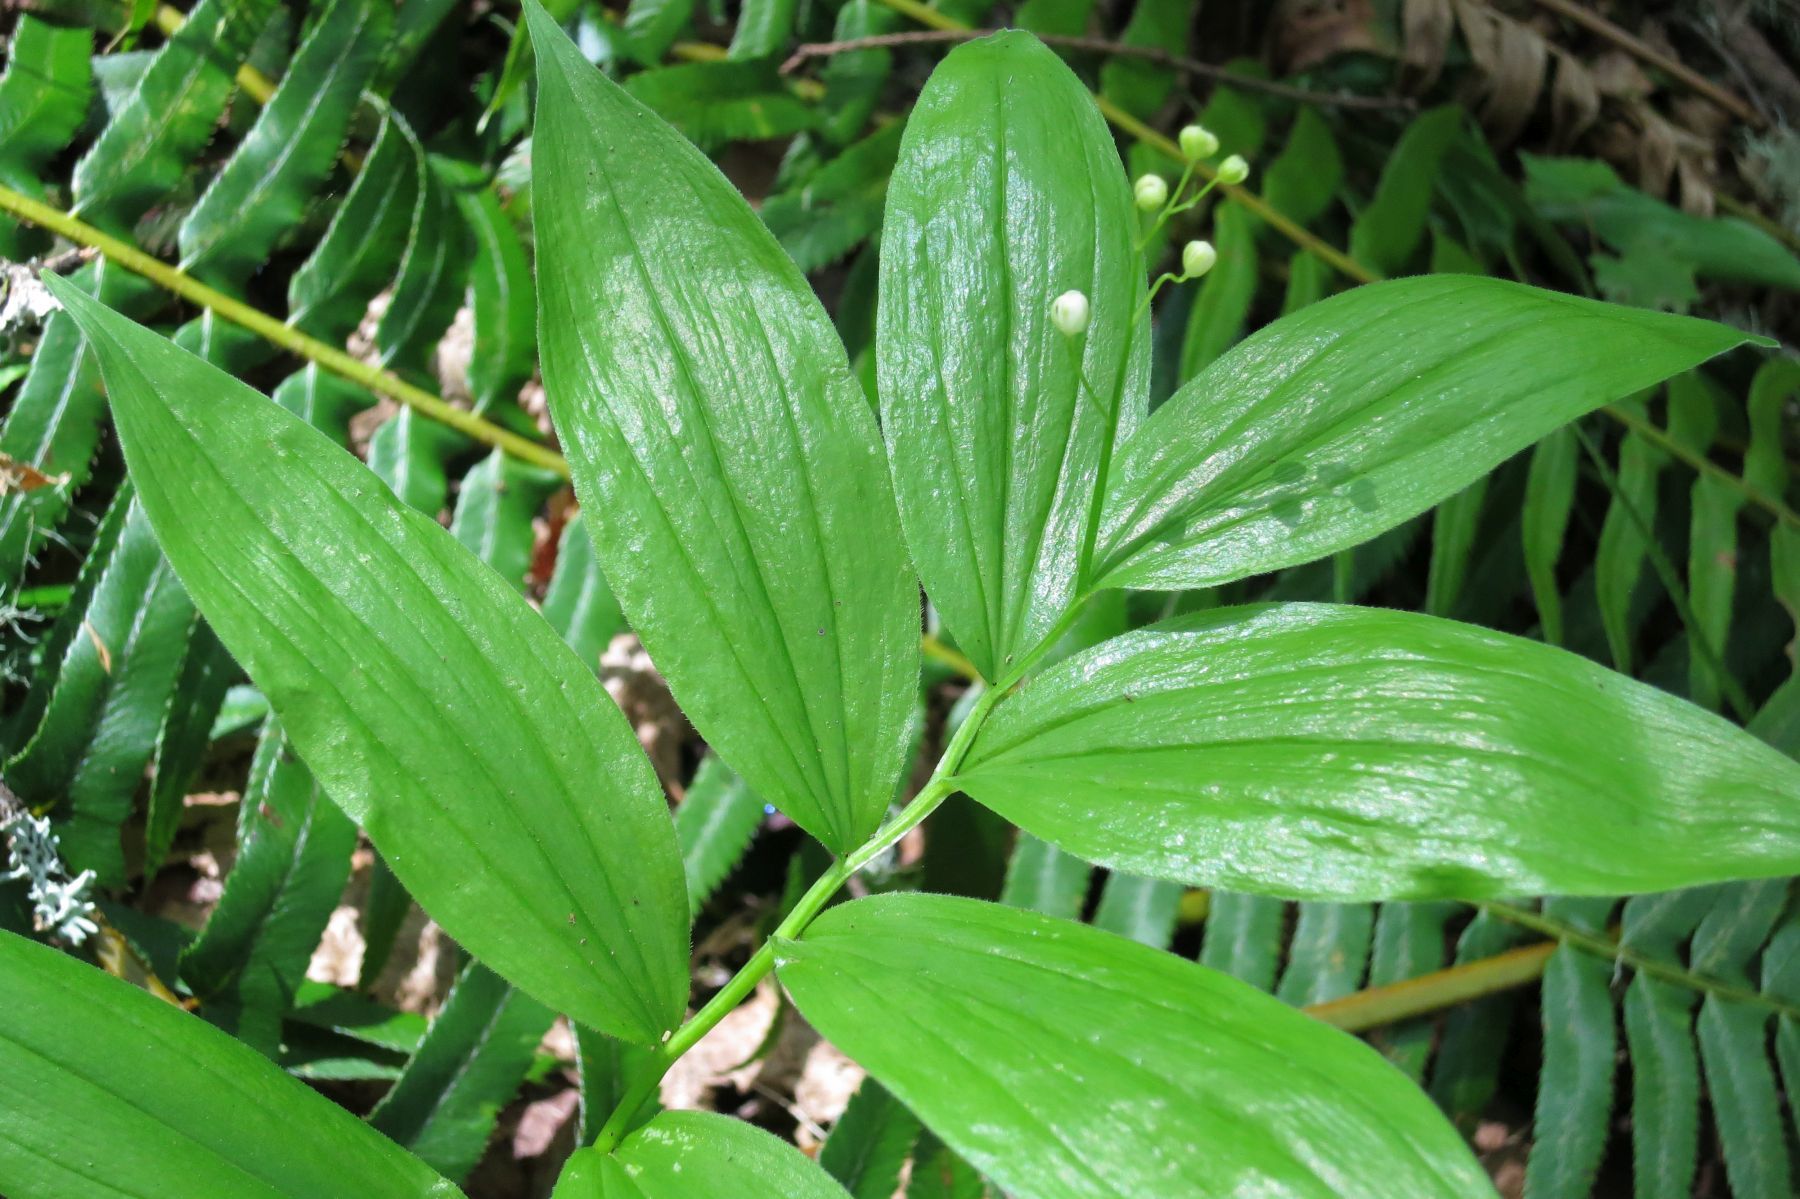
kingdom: Plantae
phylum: Tracheophyta
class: Liliopsida
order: Asparagales
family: Asparagaceae
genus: Maianthemum
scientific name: Maianthemum stellatum
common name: Little false solomon's seal
